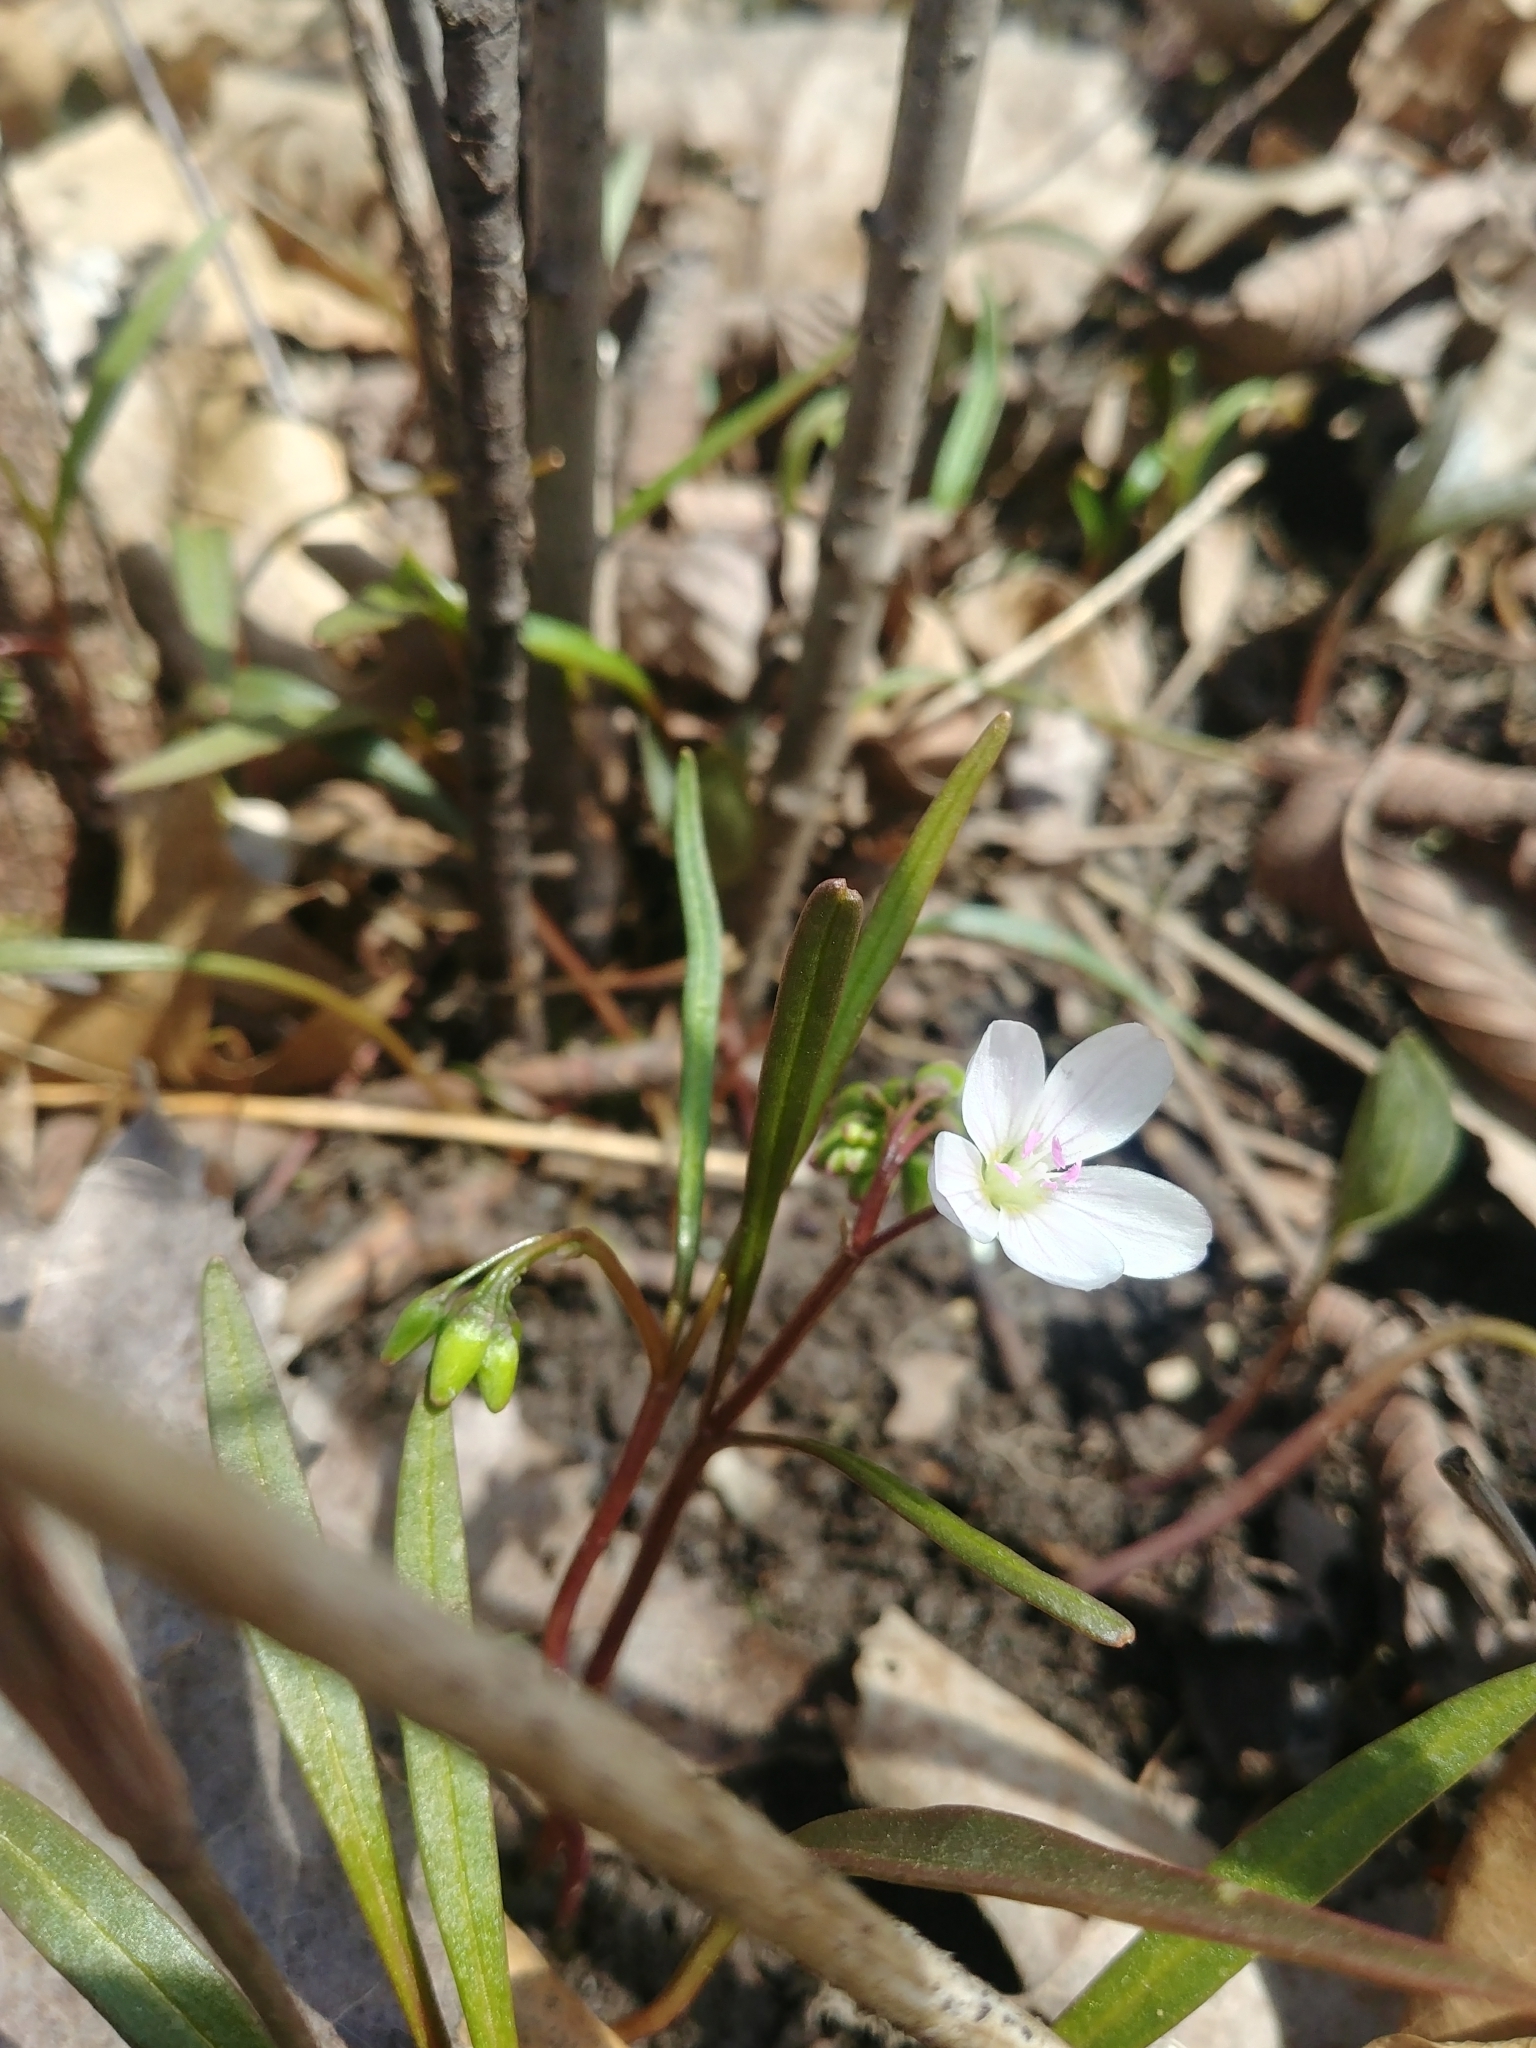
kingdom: Plantae
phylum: Tracheophyta
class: Magnoliopsida
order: Caryophyllales
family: Montiaceae
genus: Claytonia
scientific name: Claytonia virginica
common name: Virginia springbeauty
